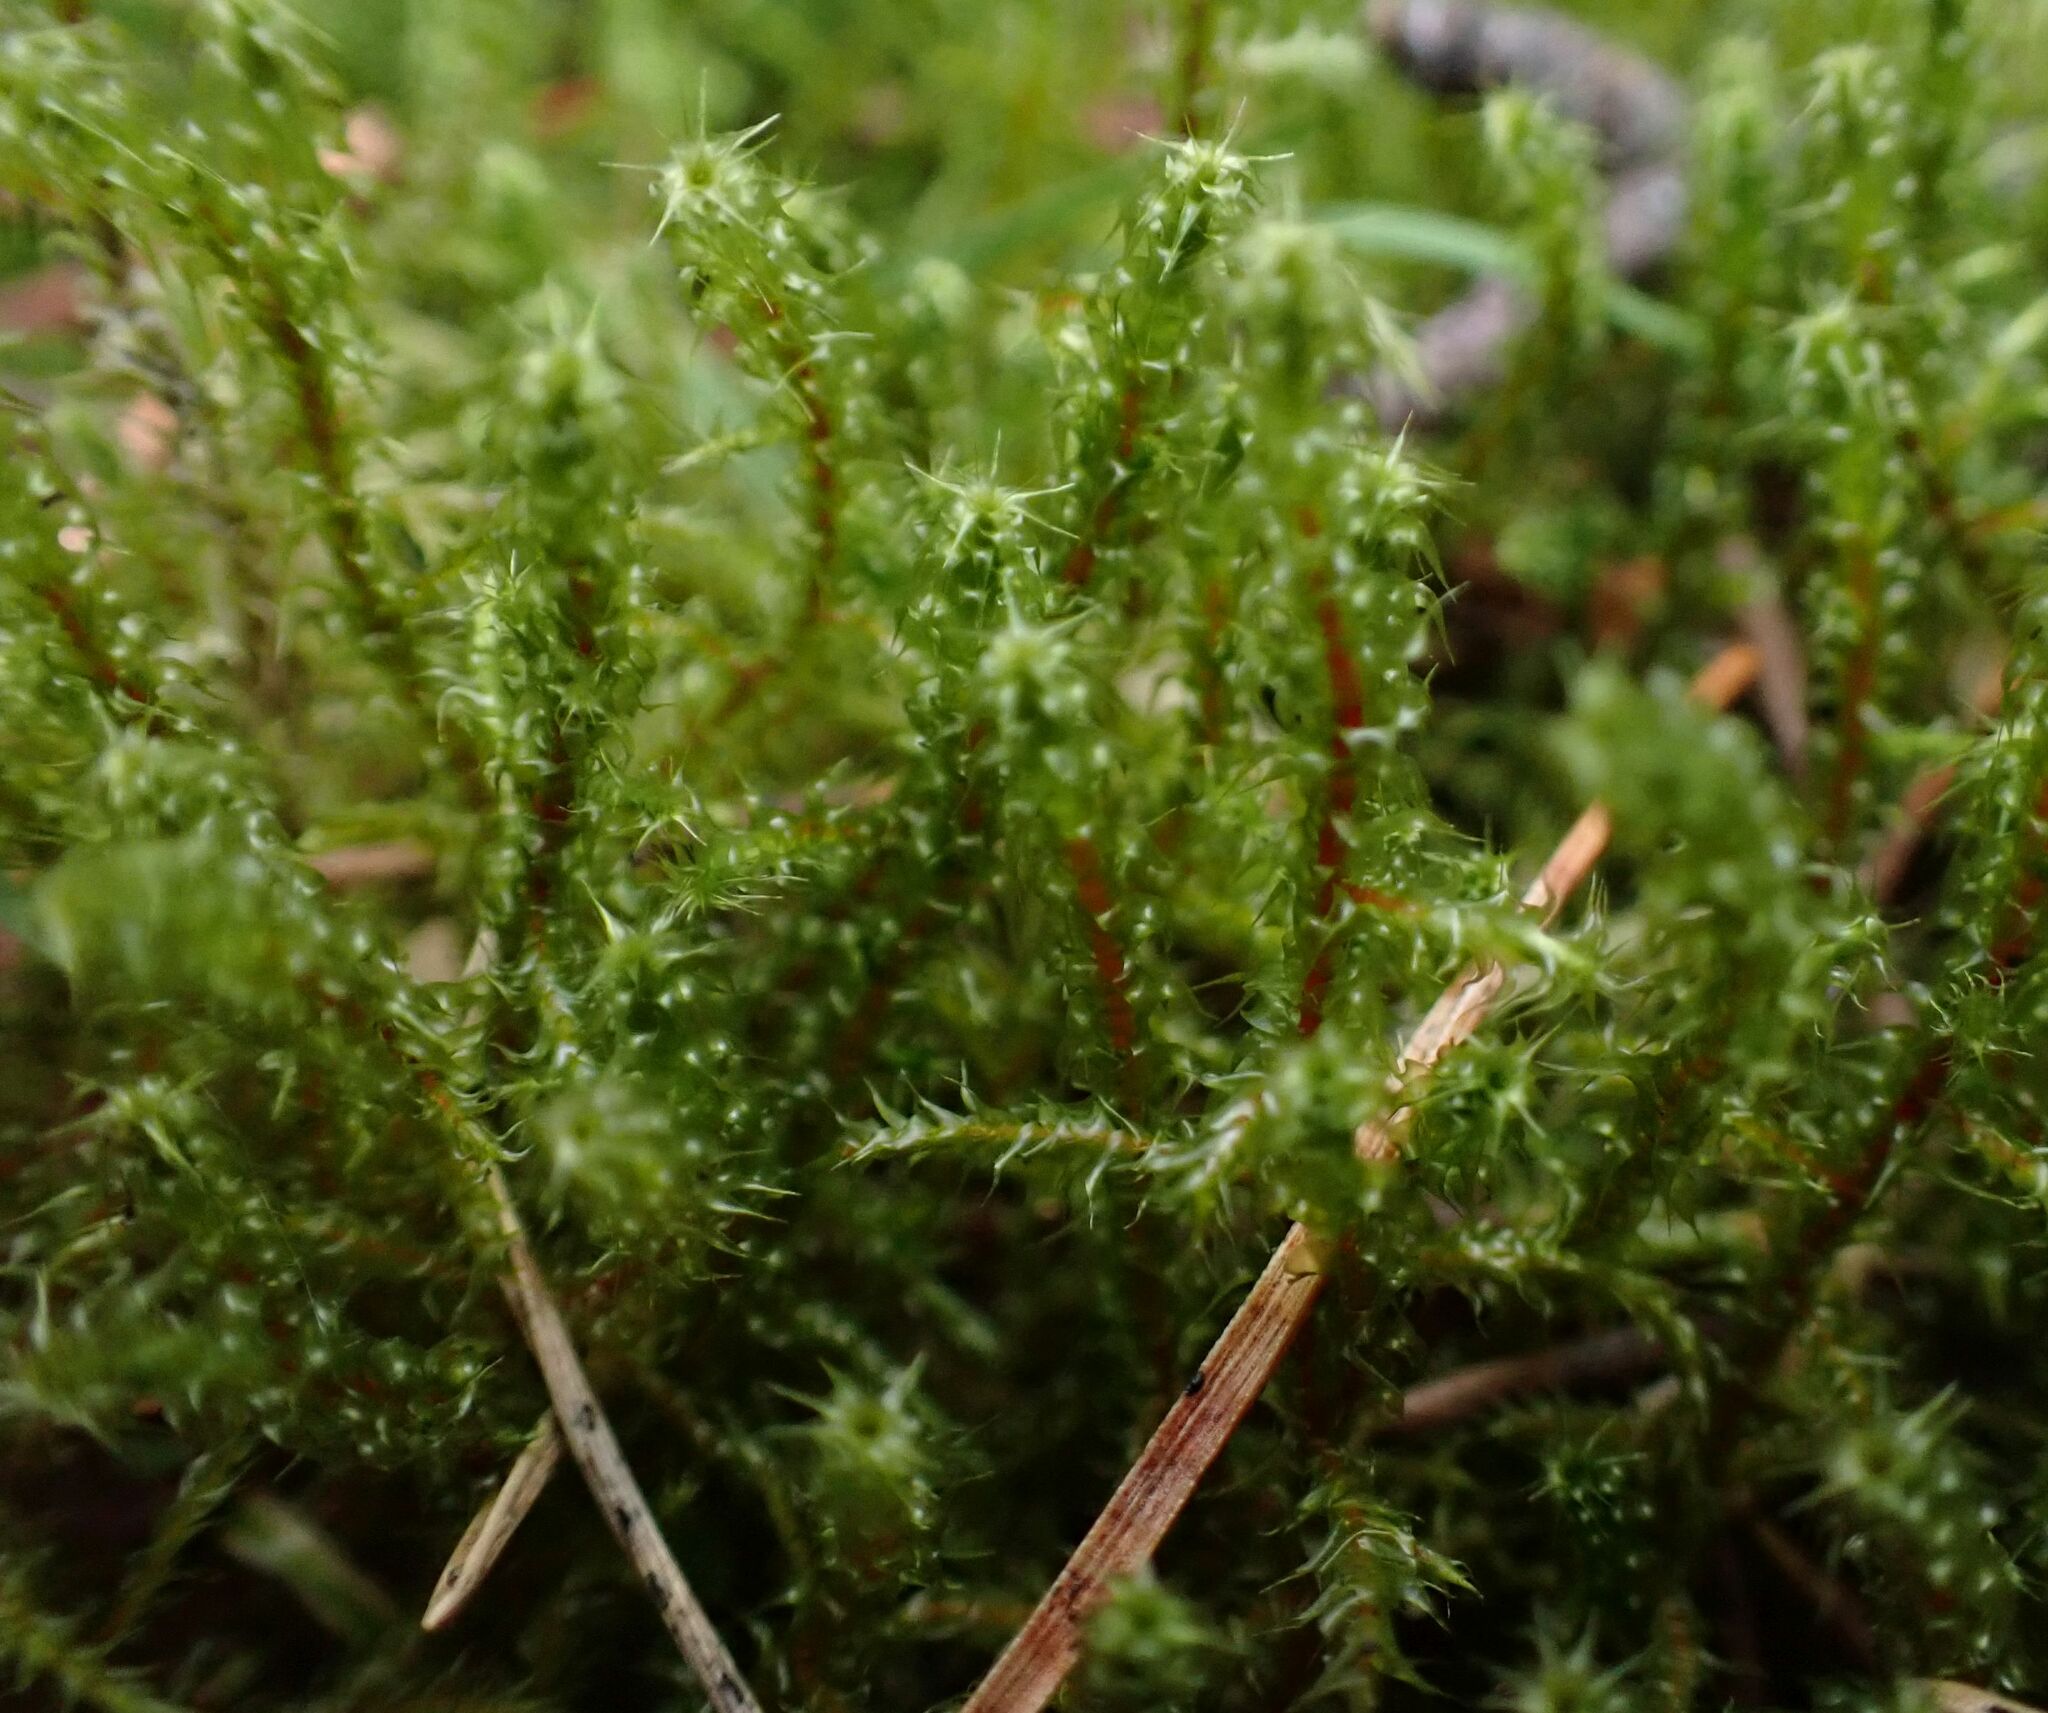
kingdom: Plantae
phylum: Bryophyta
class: Bryopsida
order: Hypnales
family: Hylocomiaceae
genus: Rhytidiadelphus
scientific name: Rhytidiadelphus squarrosus
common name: Springy turf-moss
